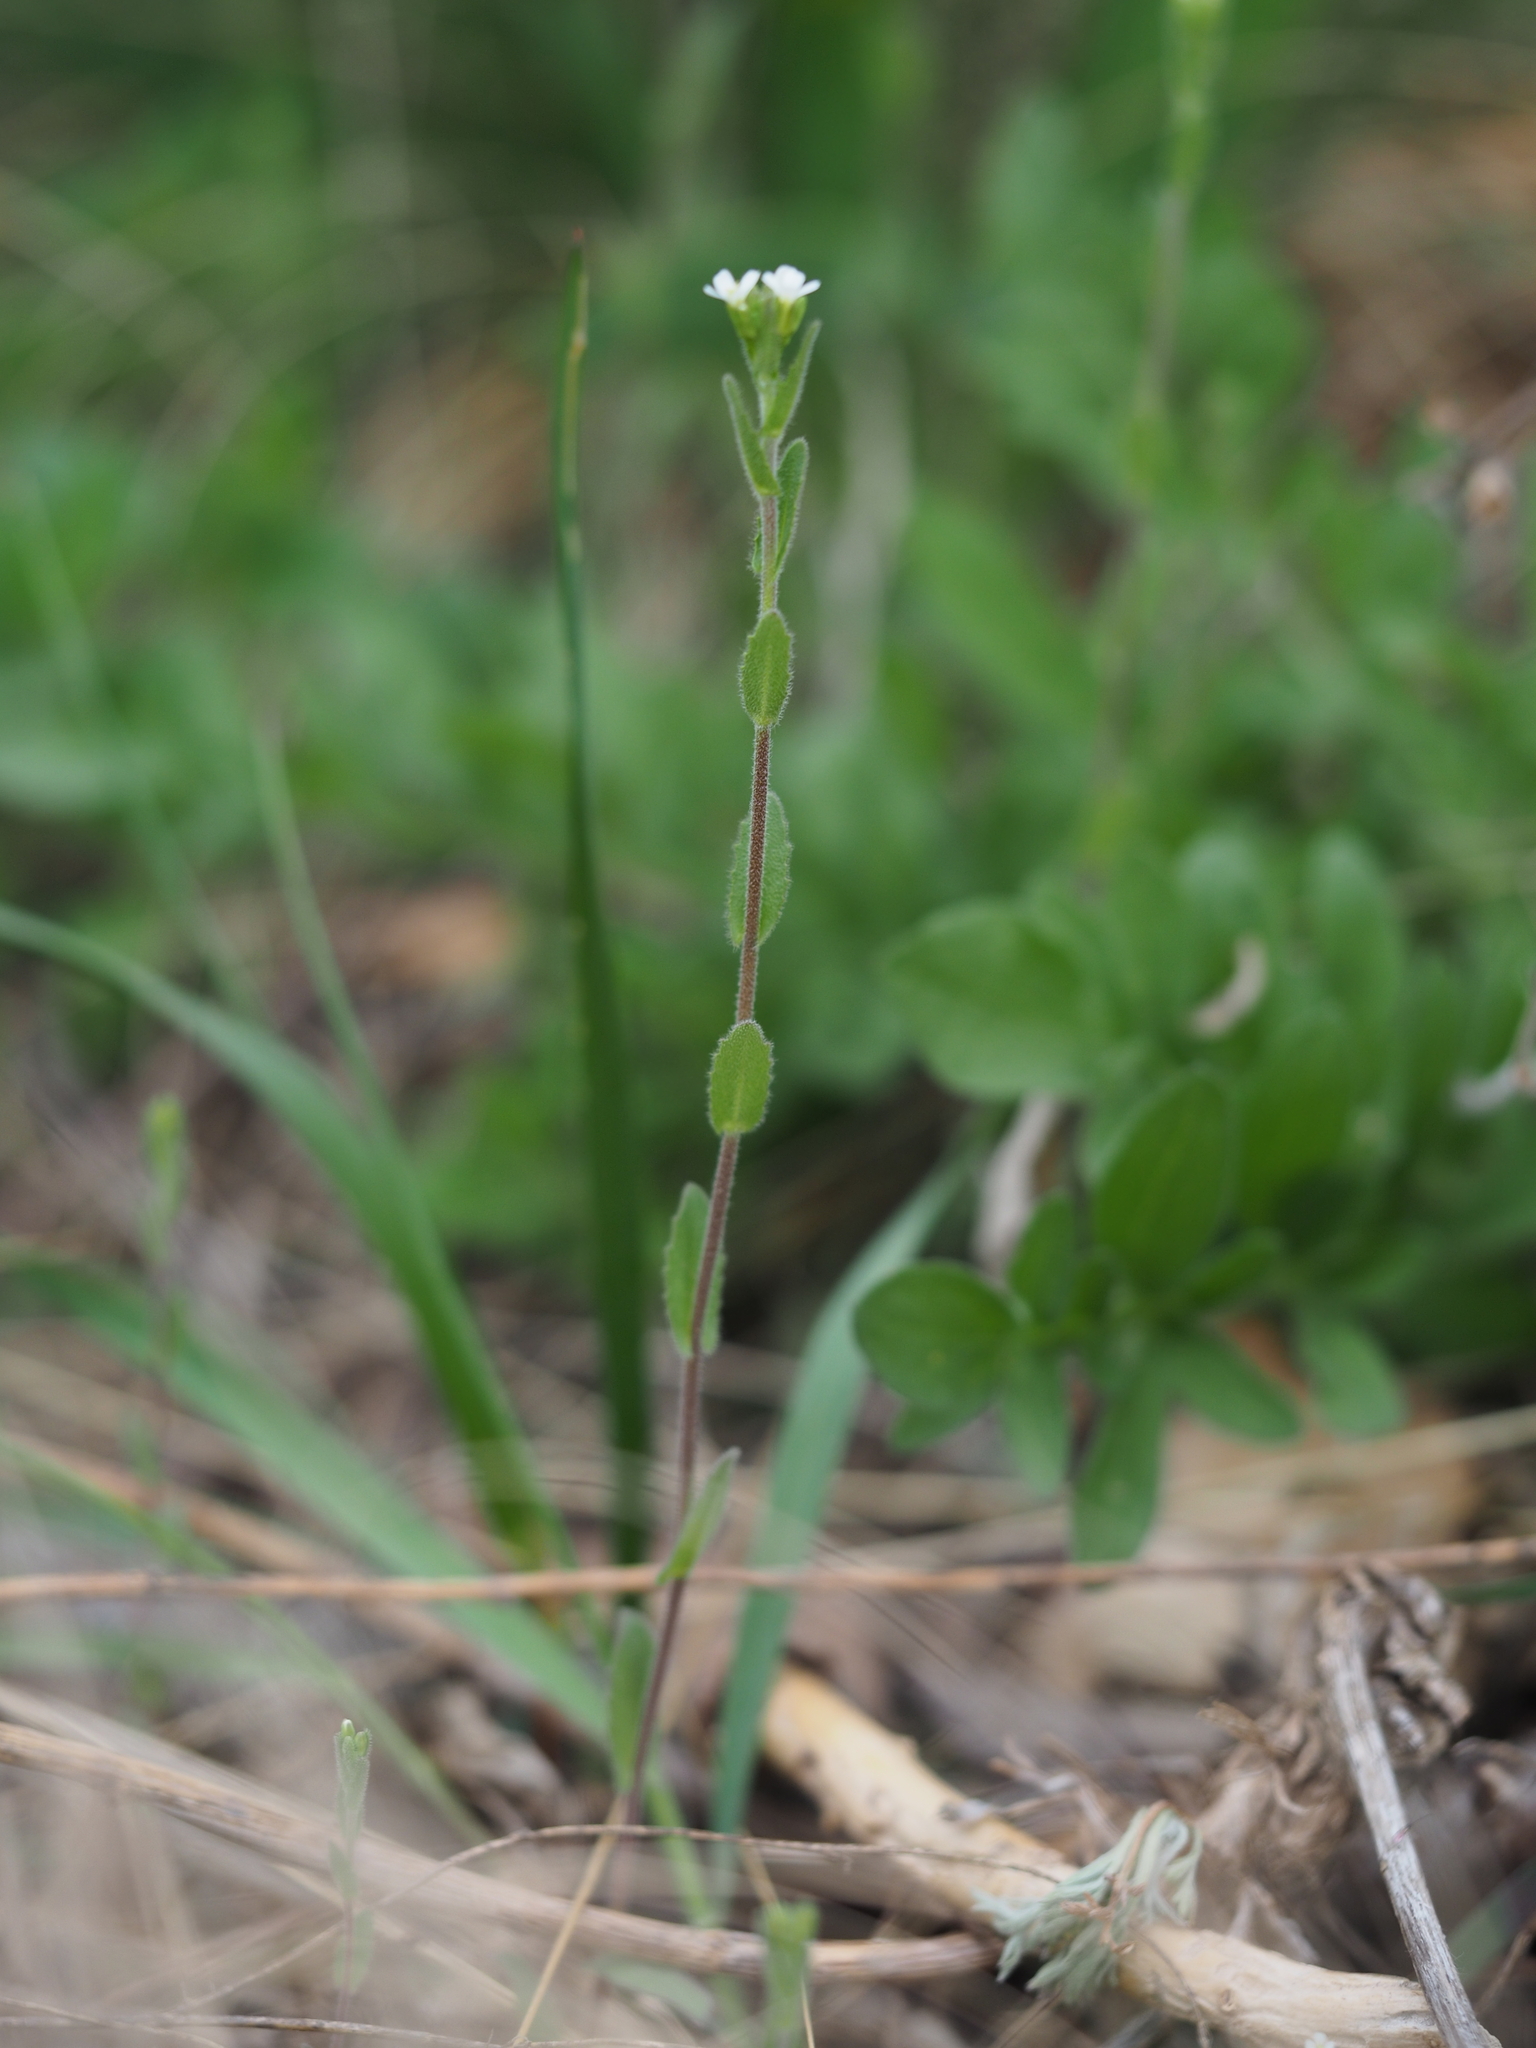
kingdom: Plantae
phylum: Tracheophyta
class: Magnoliopsida
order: Brassicales
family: Brassicaceae
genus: Arabis
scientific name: Arabis auriculata
